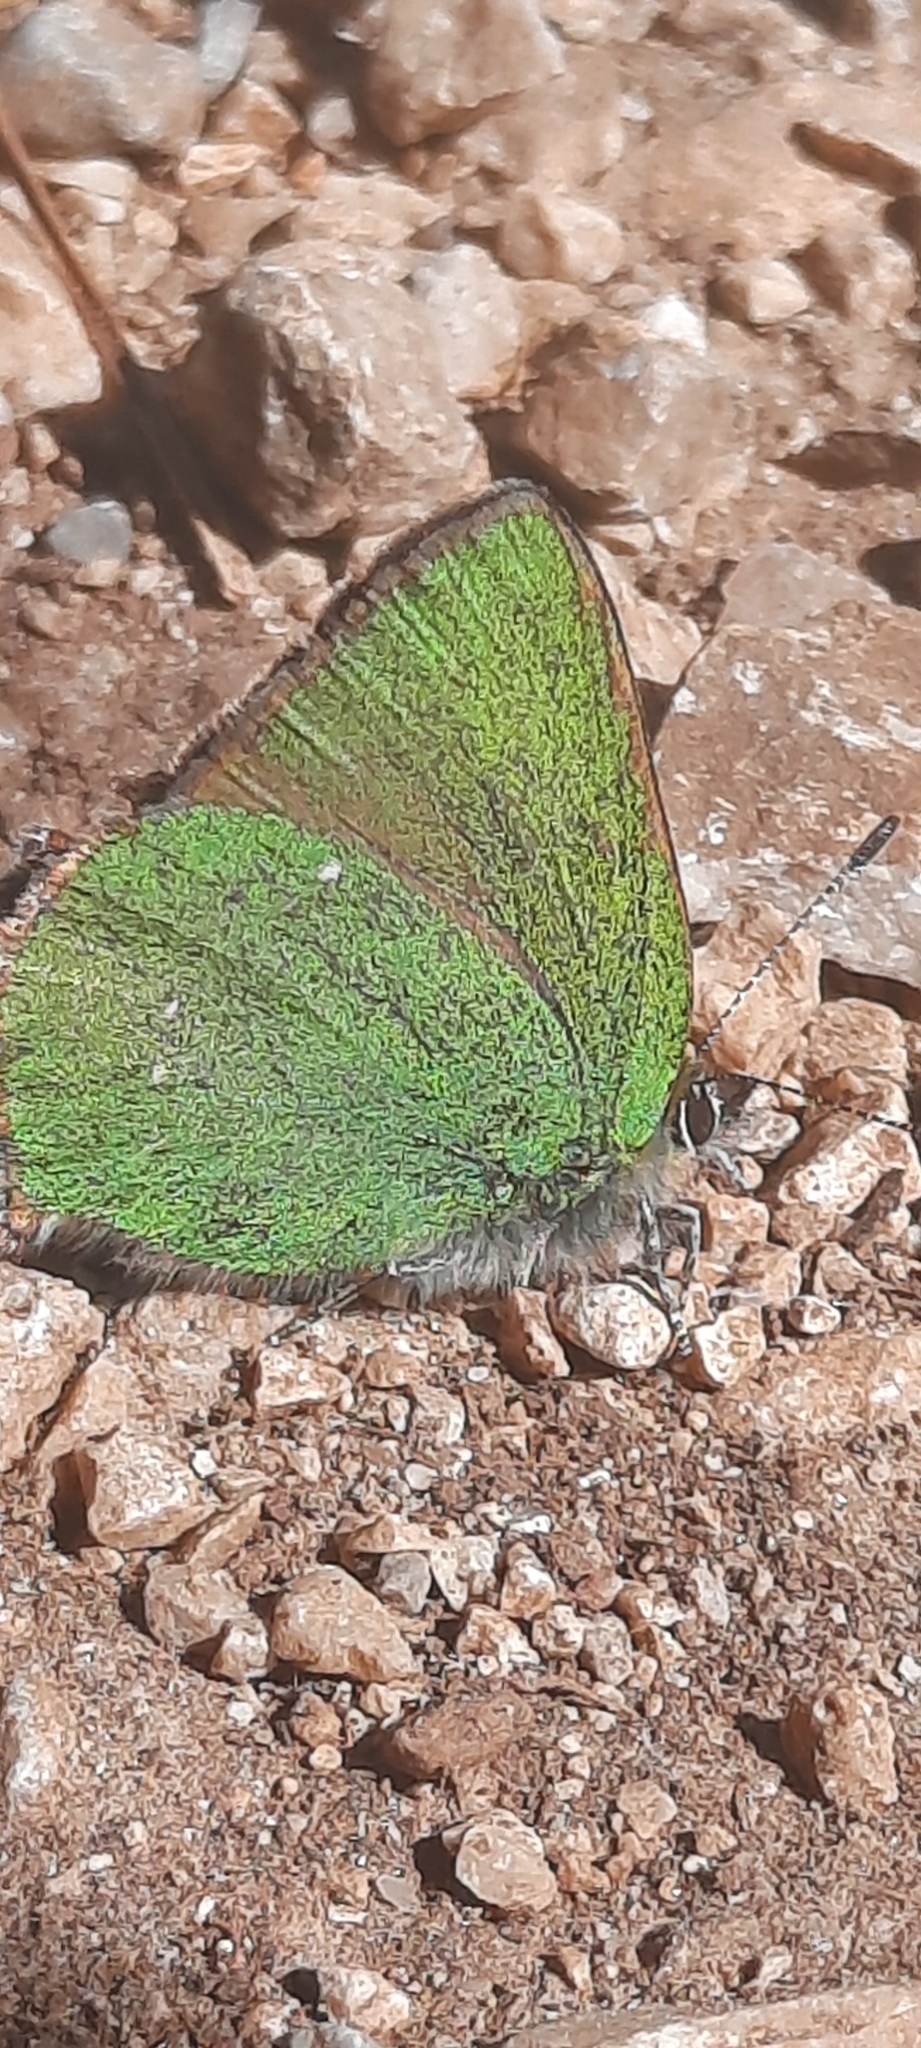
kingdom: Animalia
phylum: Arthropoda
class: Insecta
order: Lepidoptera
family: Lycaenidae
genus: Callophrys
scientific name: Callophrys rubi
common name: Green hairstreak
